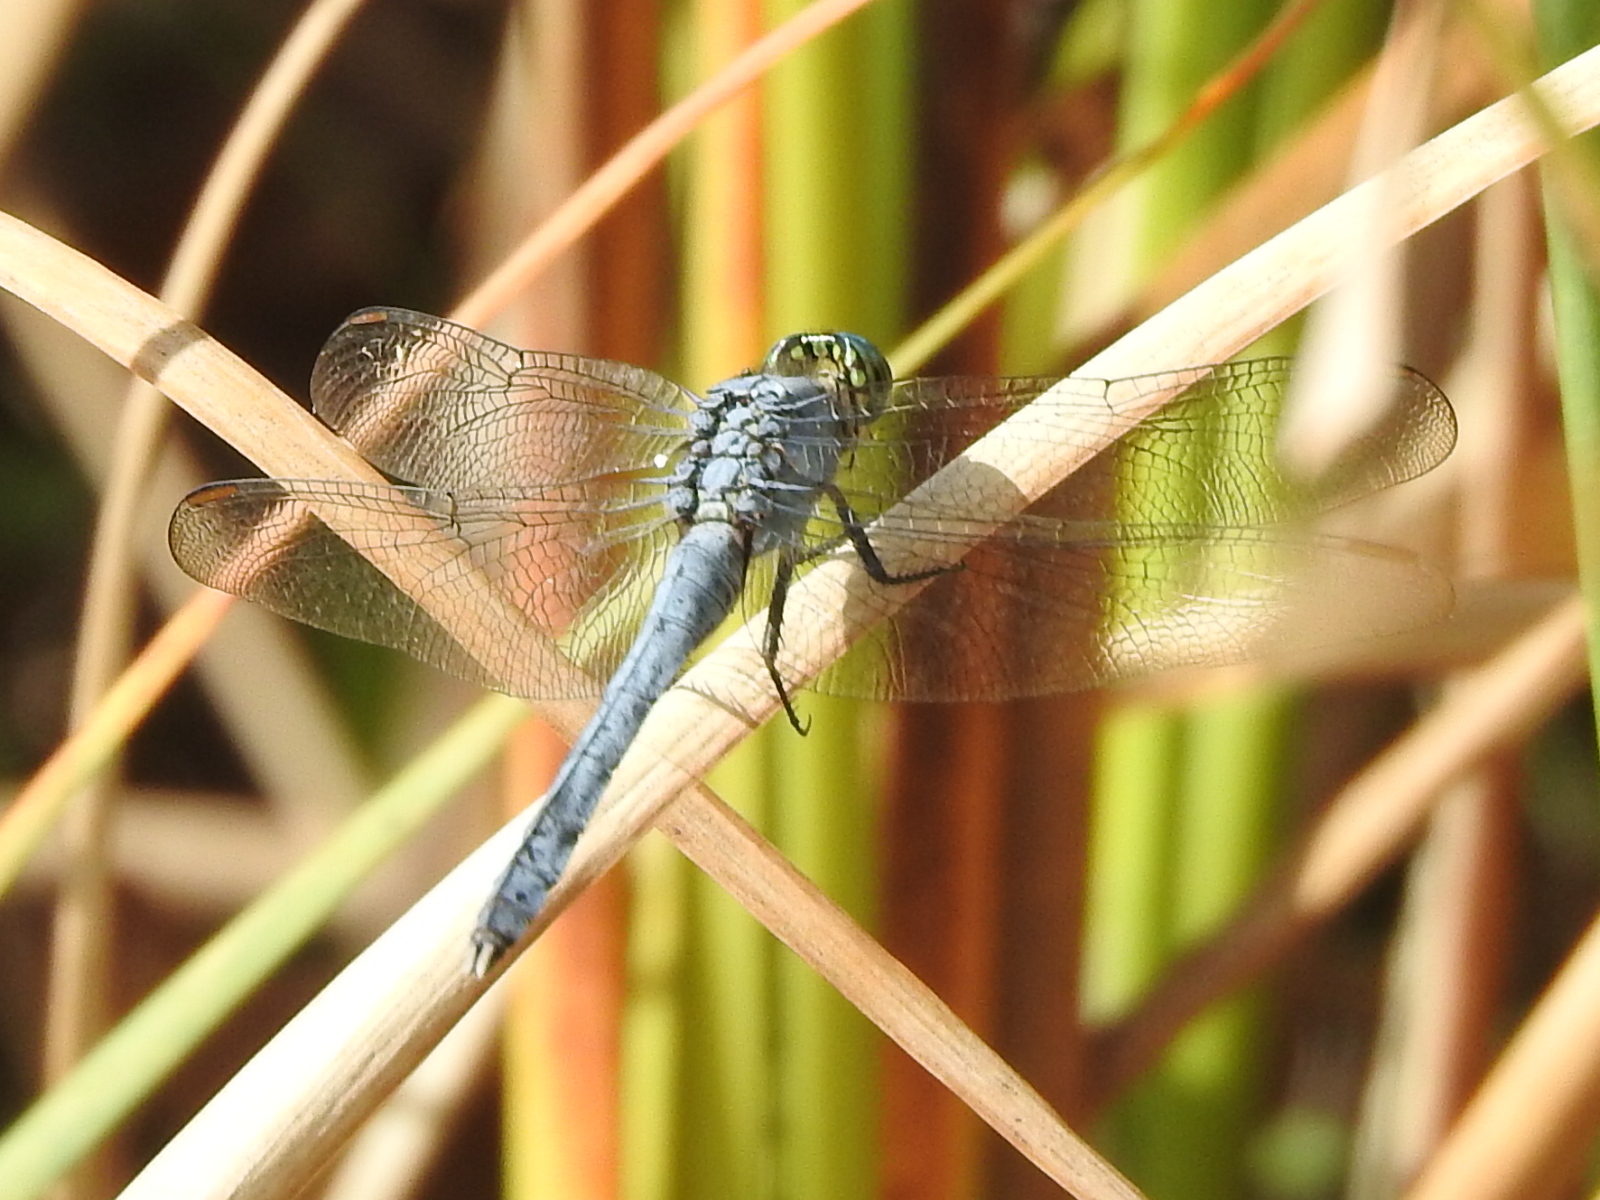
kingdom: Animalia
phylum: Arthropoda
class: Insecta
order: Odonata
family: Libellulidae
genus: Erythemis
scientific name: Erythemis simplicicollis
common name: Eastern pondhawk
